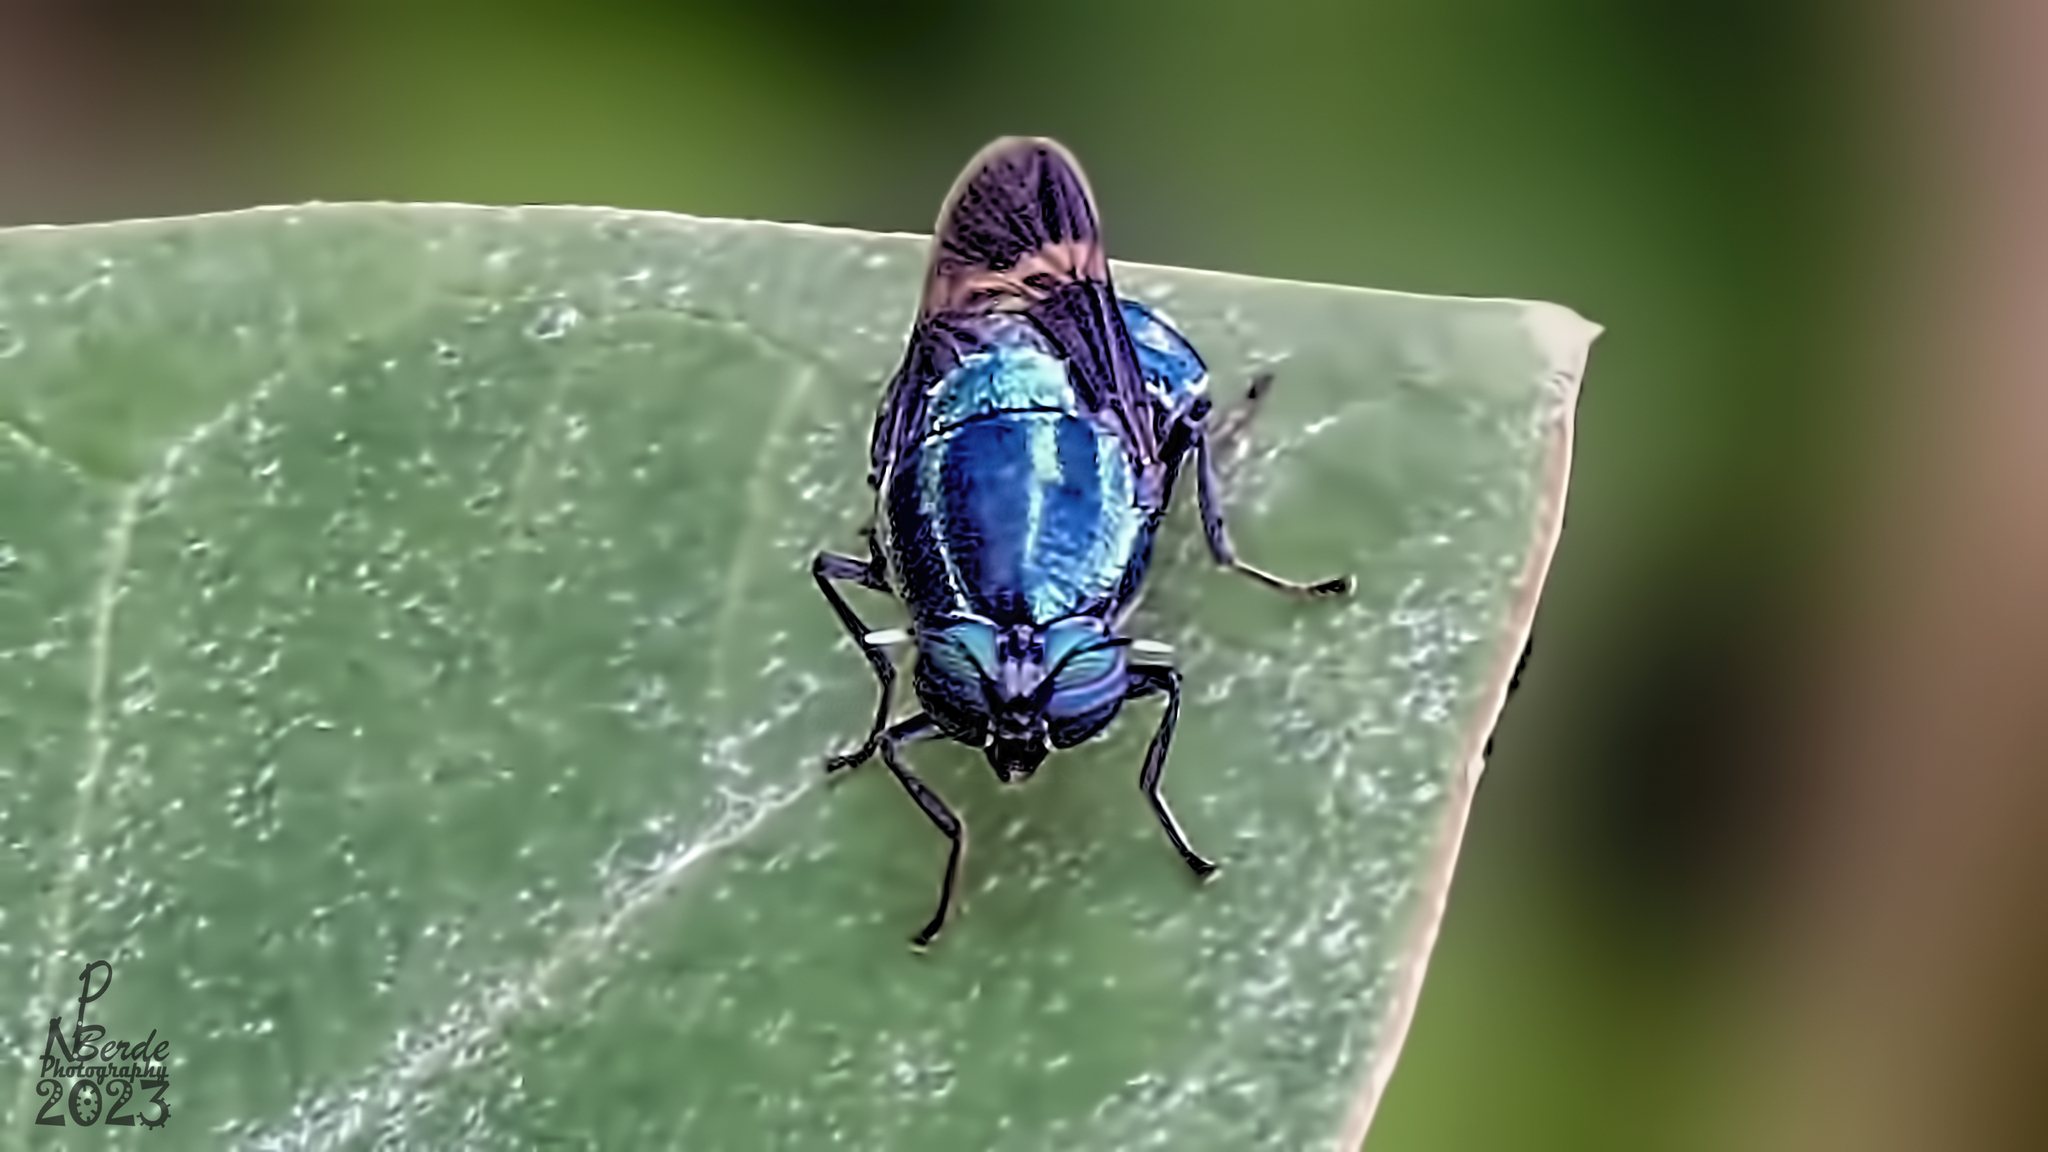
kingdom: Animalia
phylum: Arthropoda
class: Insecta
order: Diptera
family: Stratiomyidae
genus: Ptilocera
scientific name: Ptilocera continua
